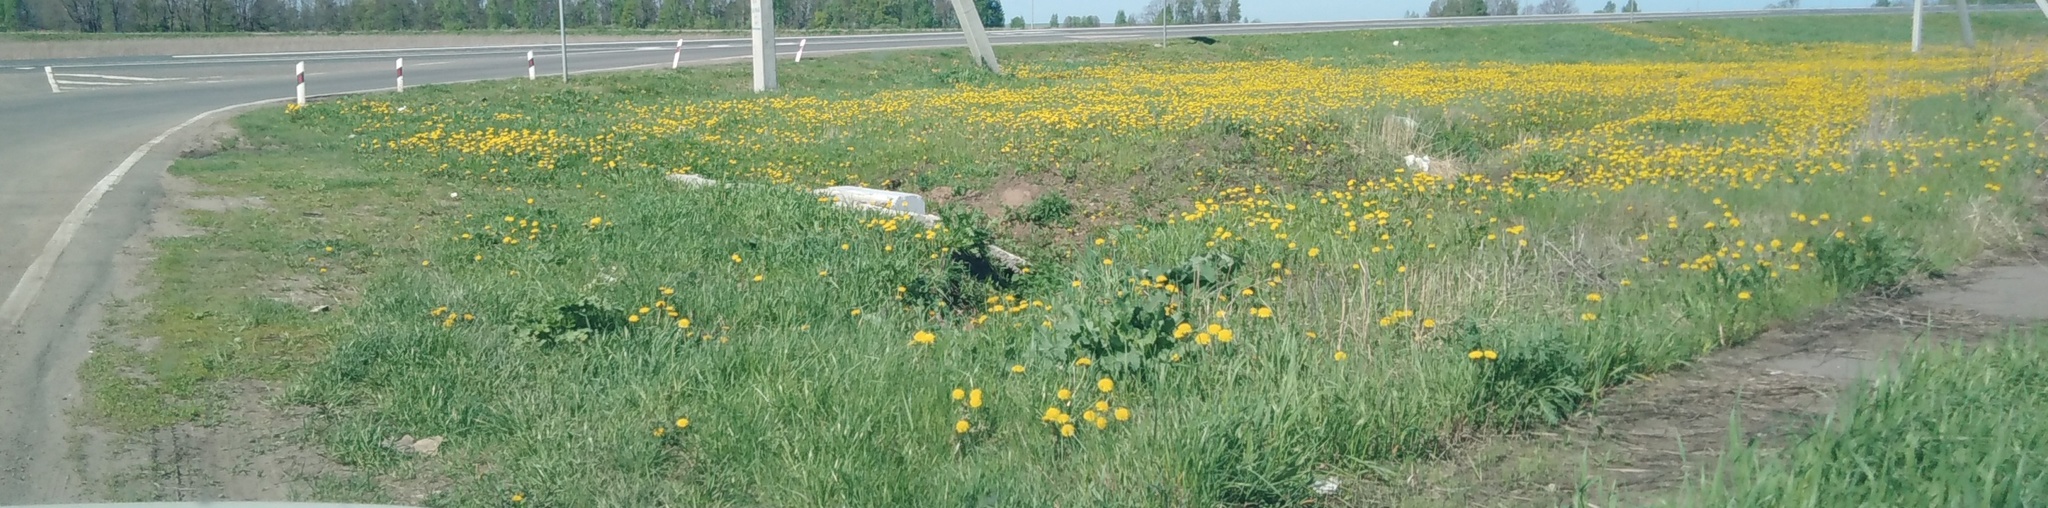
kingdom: Plantae
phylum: Tracheophyta
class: Magnoliopsida
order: Asterales
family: Asteraceae
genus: Taraxacum
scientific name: Taraxacum officinale
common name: Common dandelion
